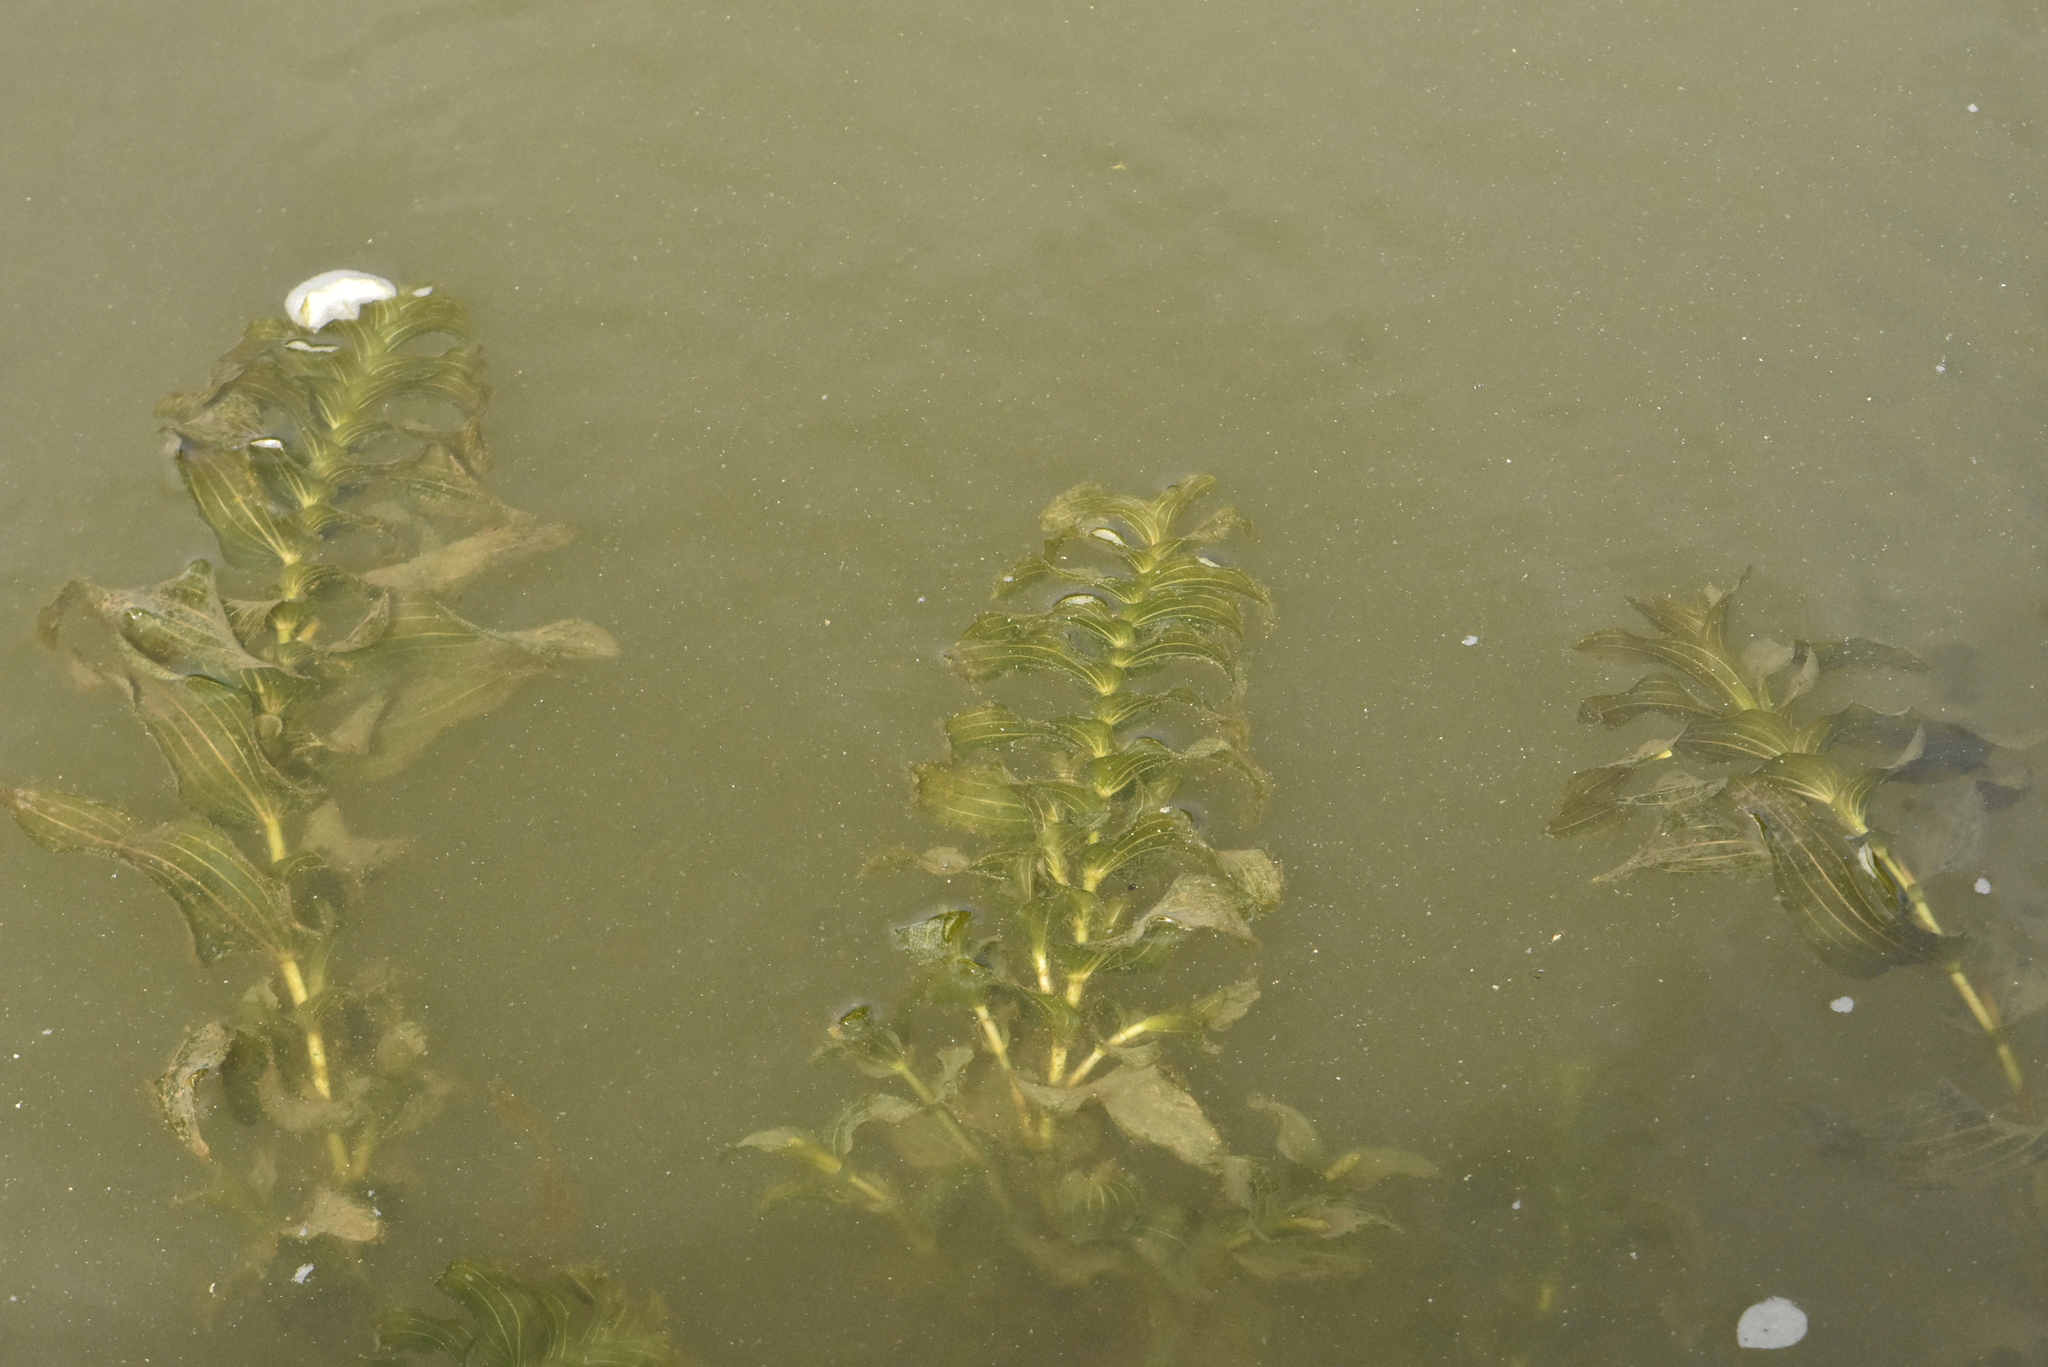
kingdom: Plantae
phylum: Tracheophyta
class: Liliopsida
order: Alismatales
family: Potamogetonaceae
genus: Potamogeton
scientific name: Potamogeton perfoliatus
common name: Perfoliate pondweed
